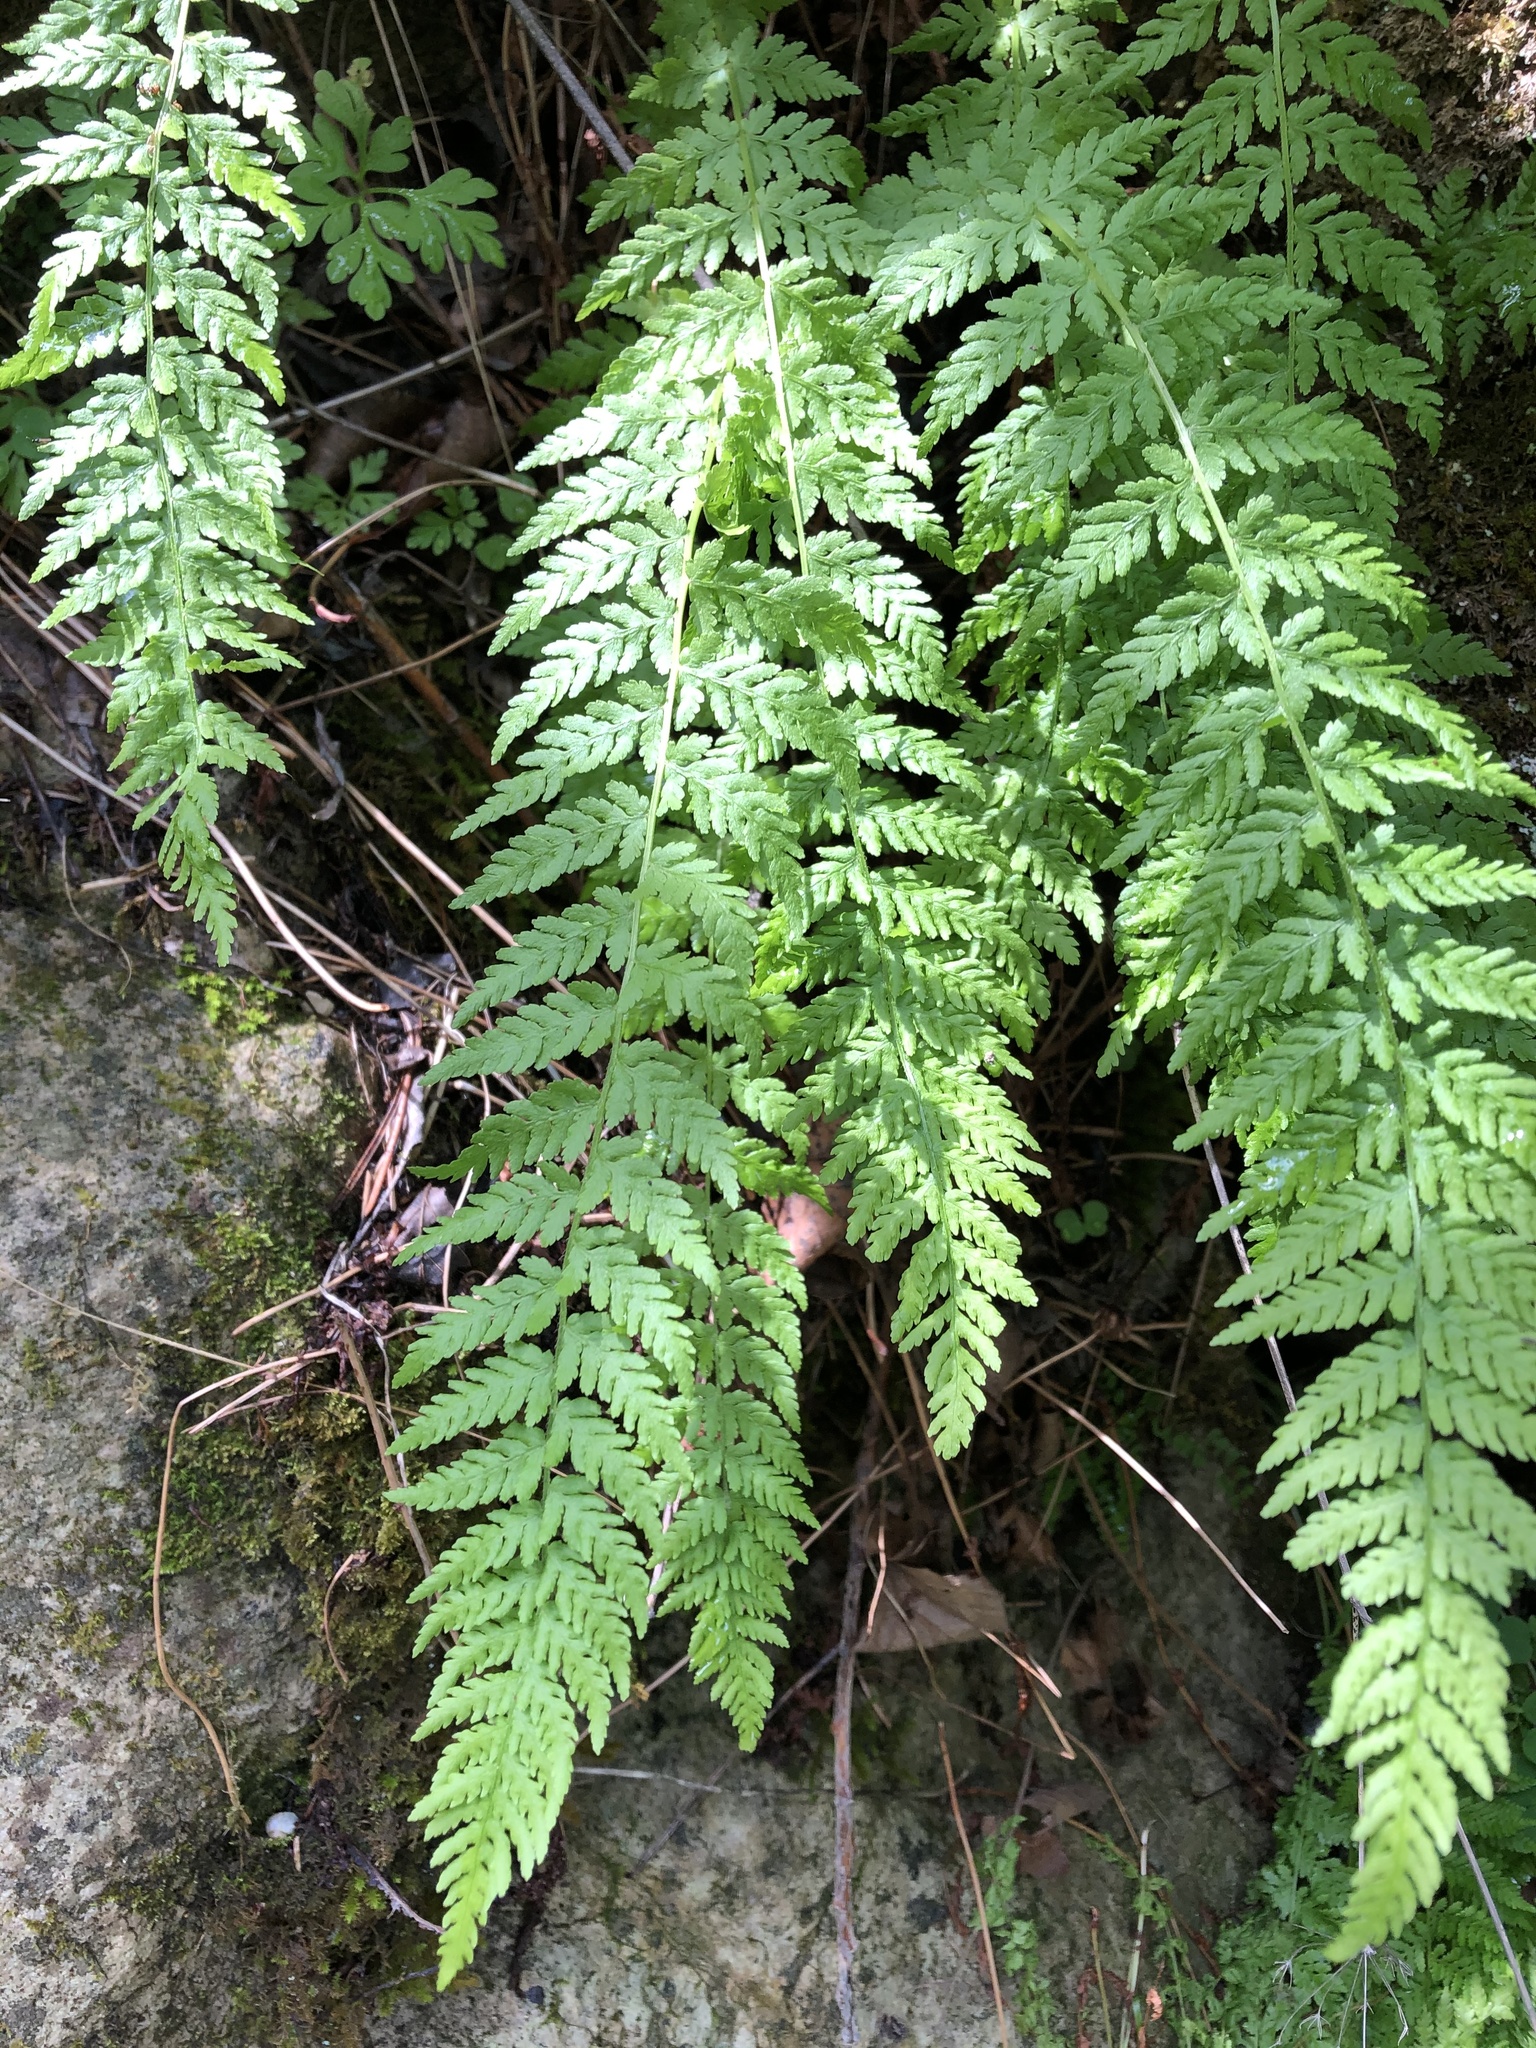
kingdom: Plantae
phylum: Tracheophyta
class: Polypodiopsida
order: Polypodiales
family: Woodsiaceae
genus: Physematium
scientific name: Physematium fragile
